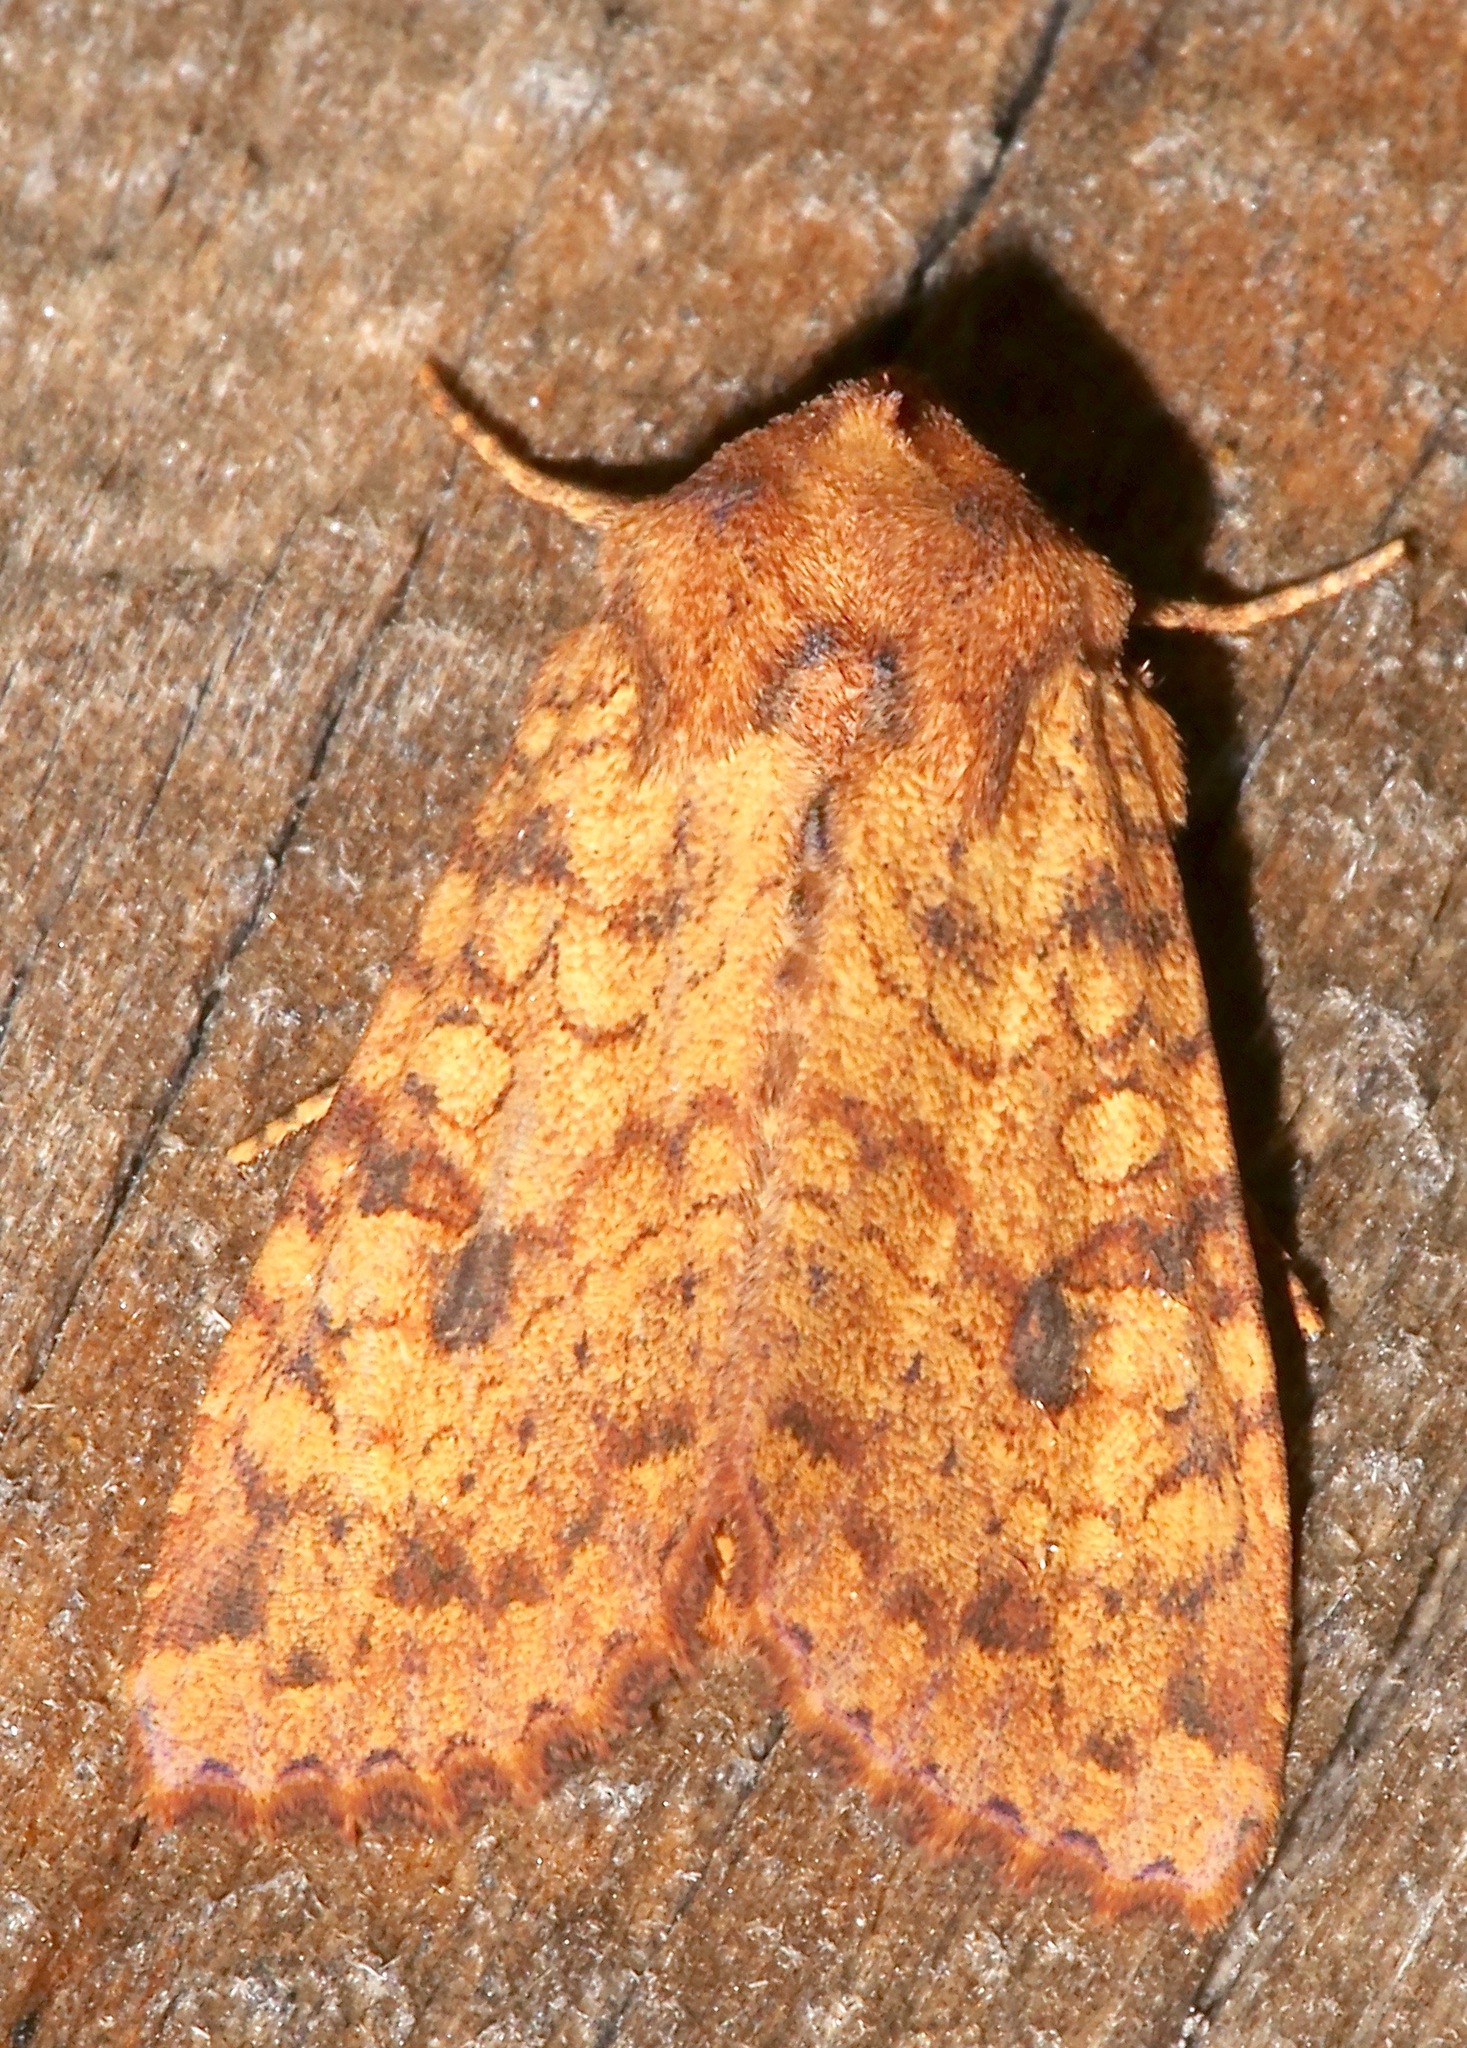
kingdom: Animalia
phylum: Arthropoda
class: Insecta
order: Lepidoptera
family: Noctuidae
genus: Apamea
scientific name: Apamea helva
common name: Yellow three-spot
